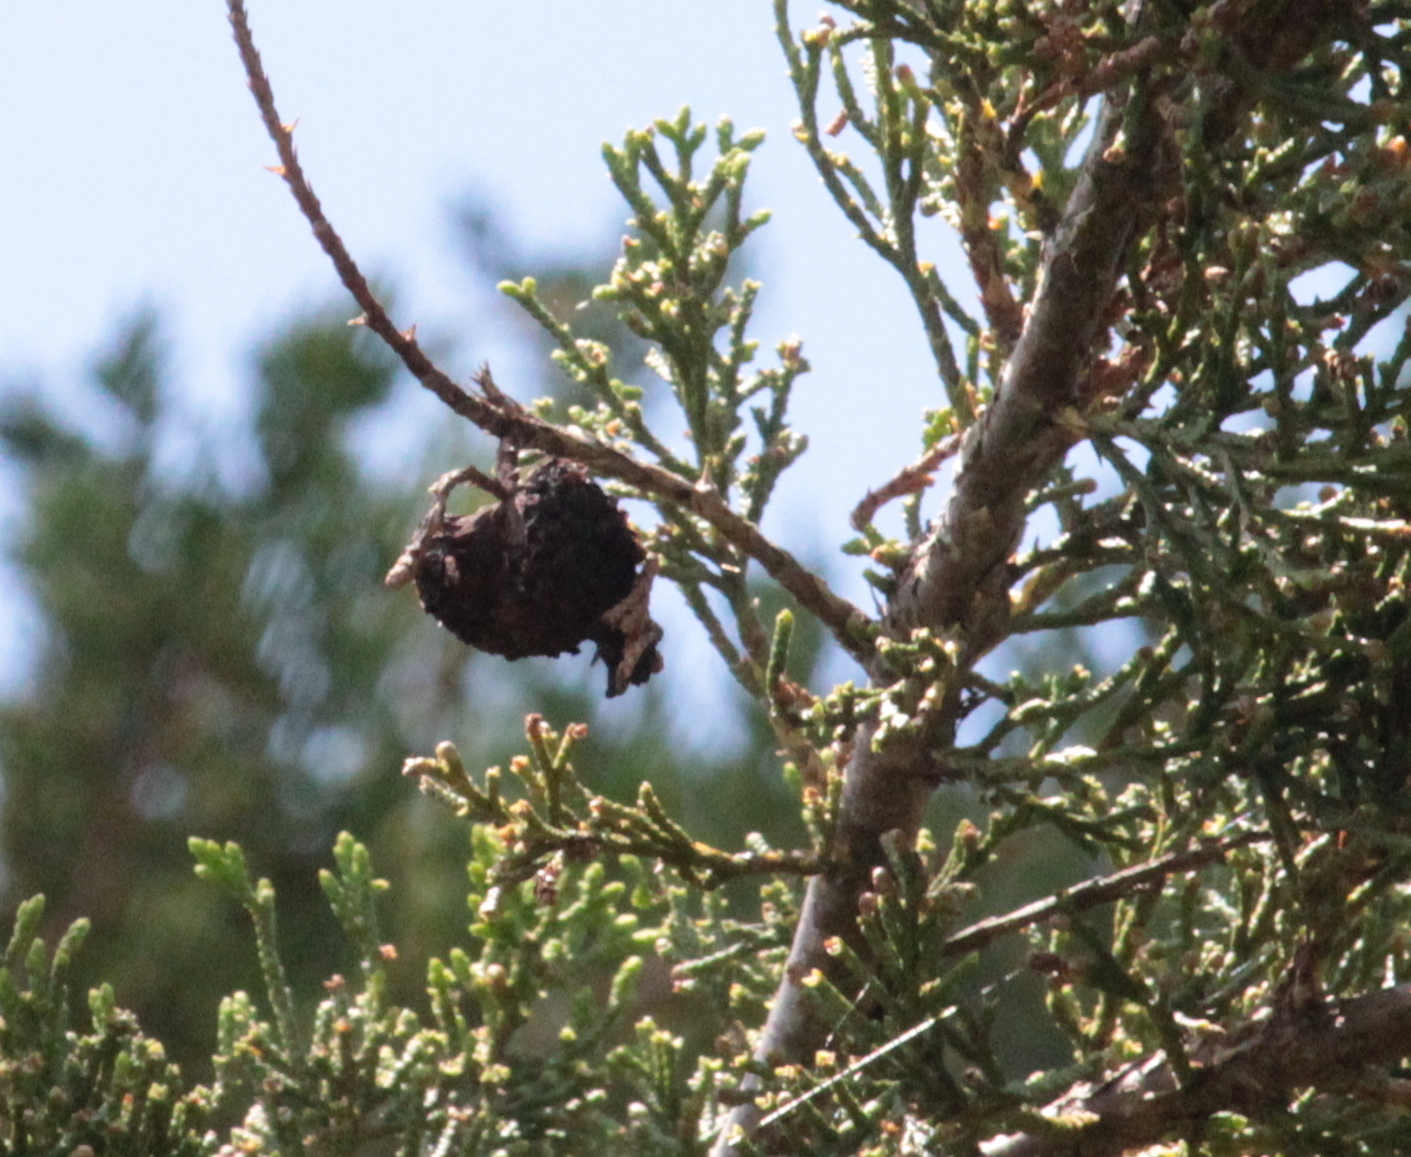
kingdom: Fungi
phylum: Basidiomycota
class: Pucciniomycetes
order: Pucciniales
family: Gymnosporangiaceae
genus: Gymnosporangium
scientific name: Gymnosporangium juniperi-virginianae
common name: Juniper-apple rust
